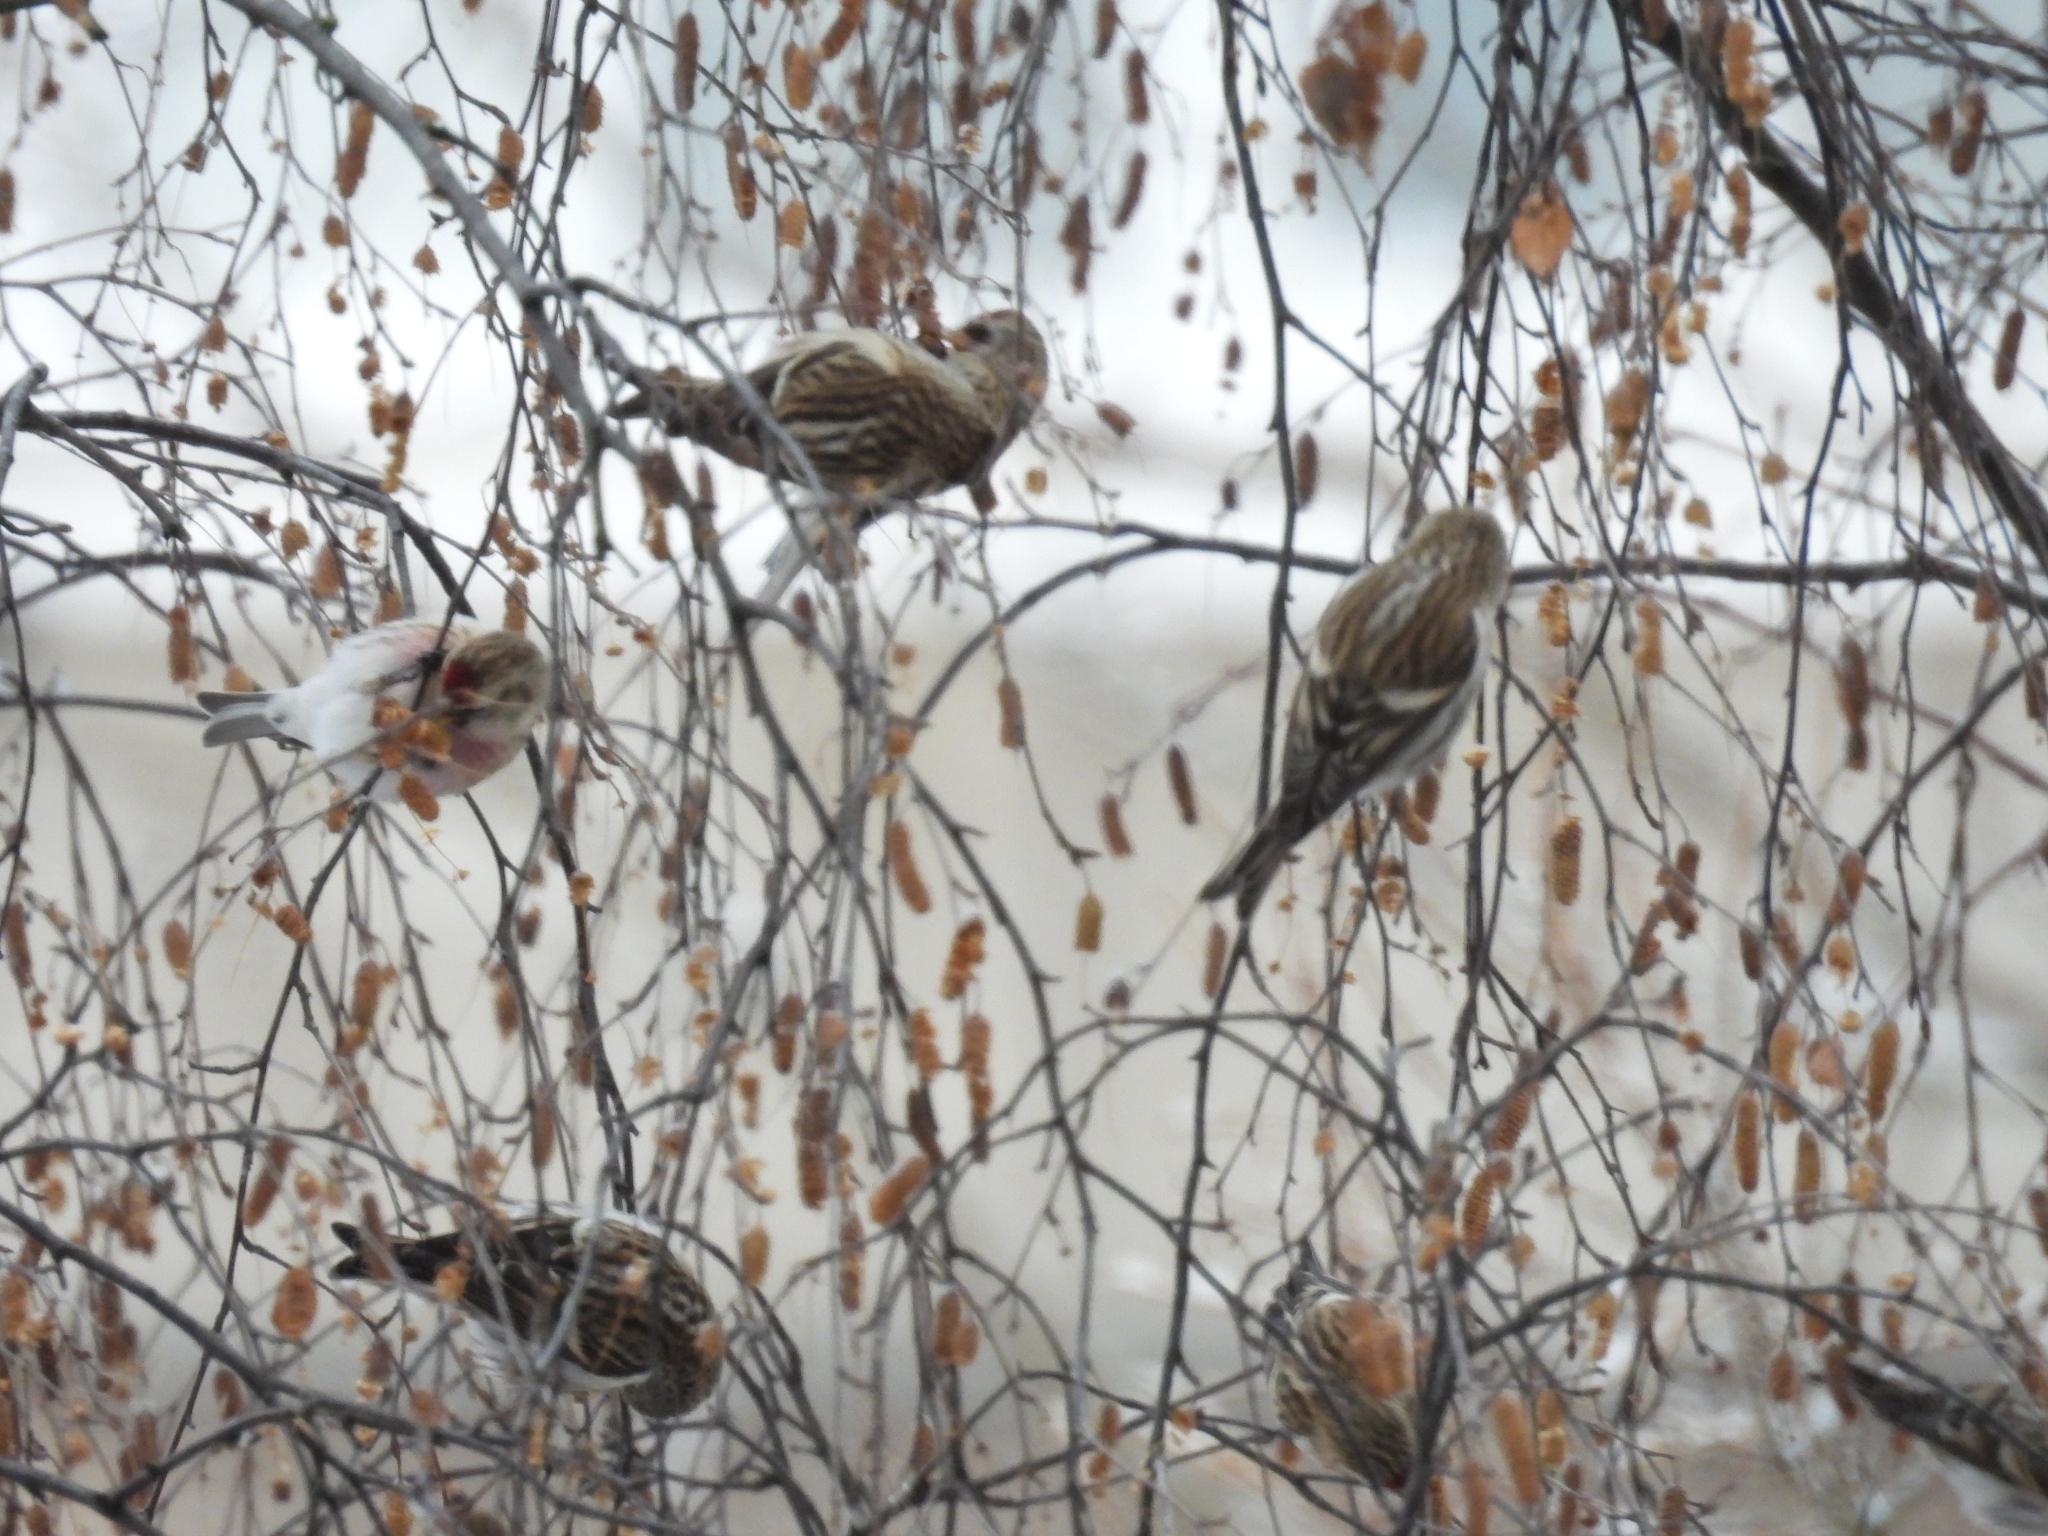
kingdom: Animalia
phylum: Chordata
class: Aves
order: Passeriformes
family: Fringillidae
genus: Acanthis
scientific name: Acanthis flammea
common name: Common redpoll
